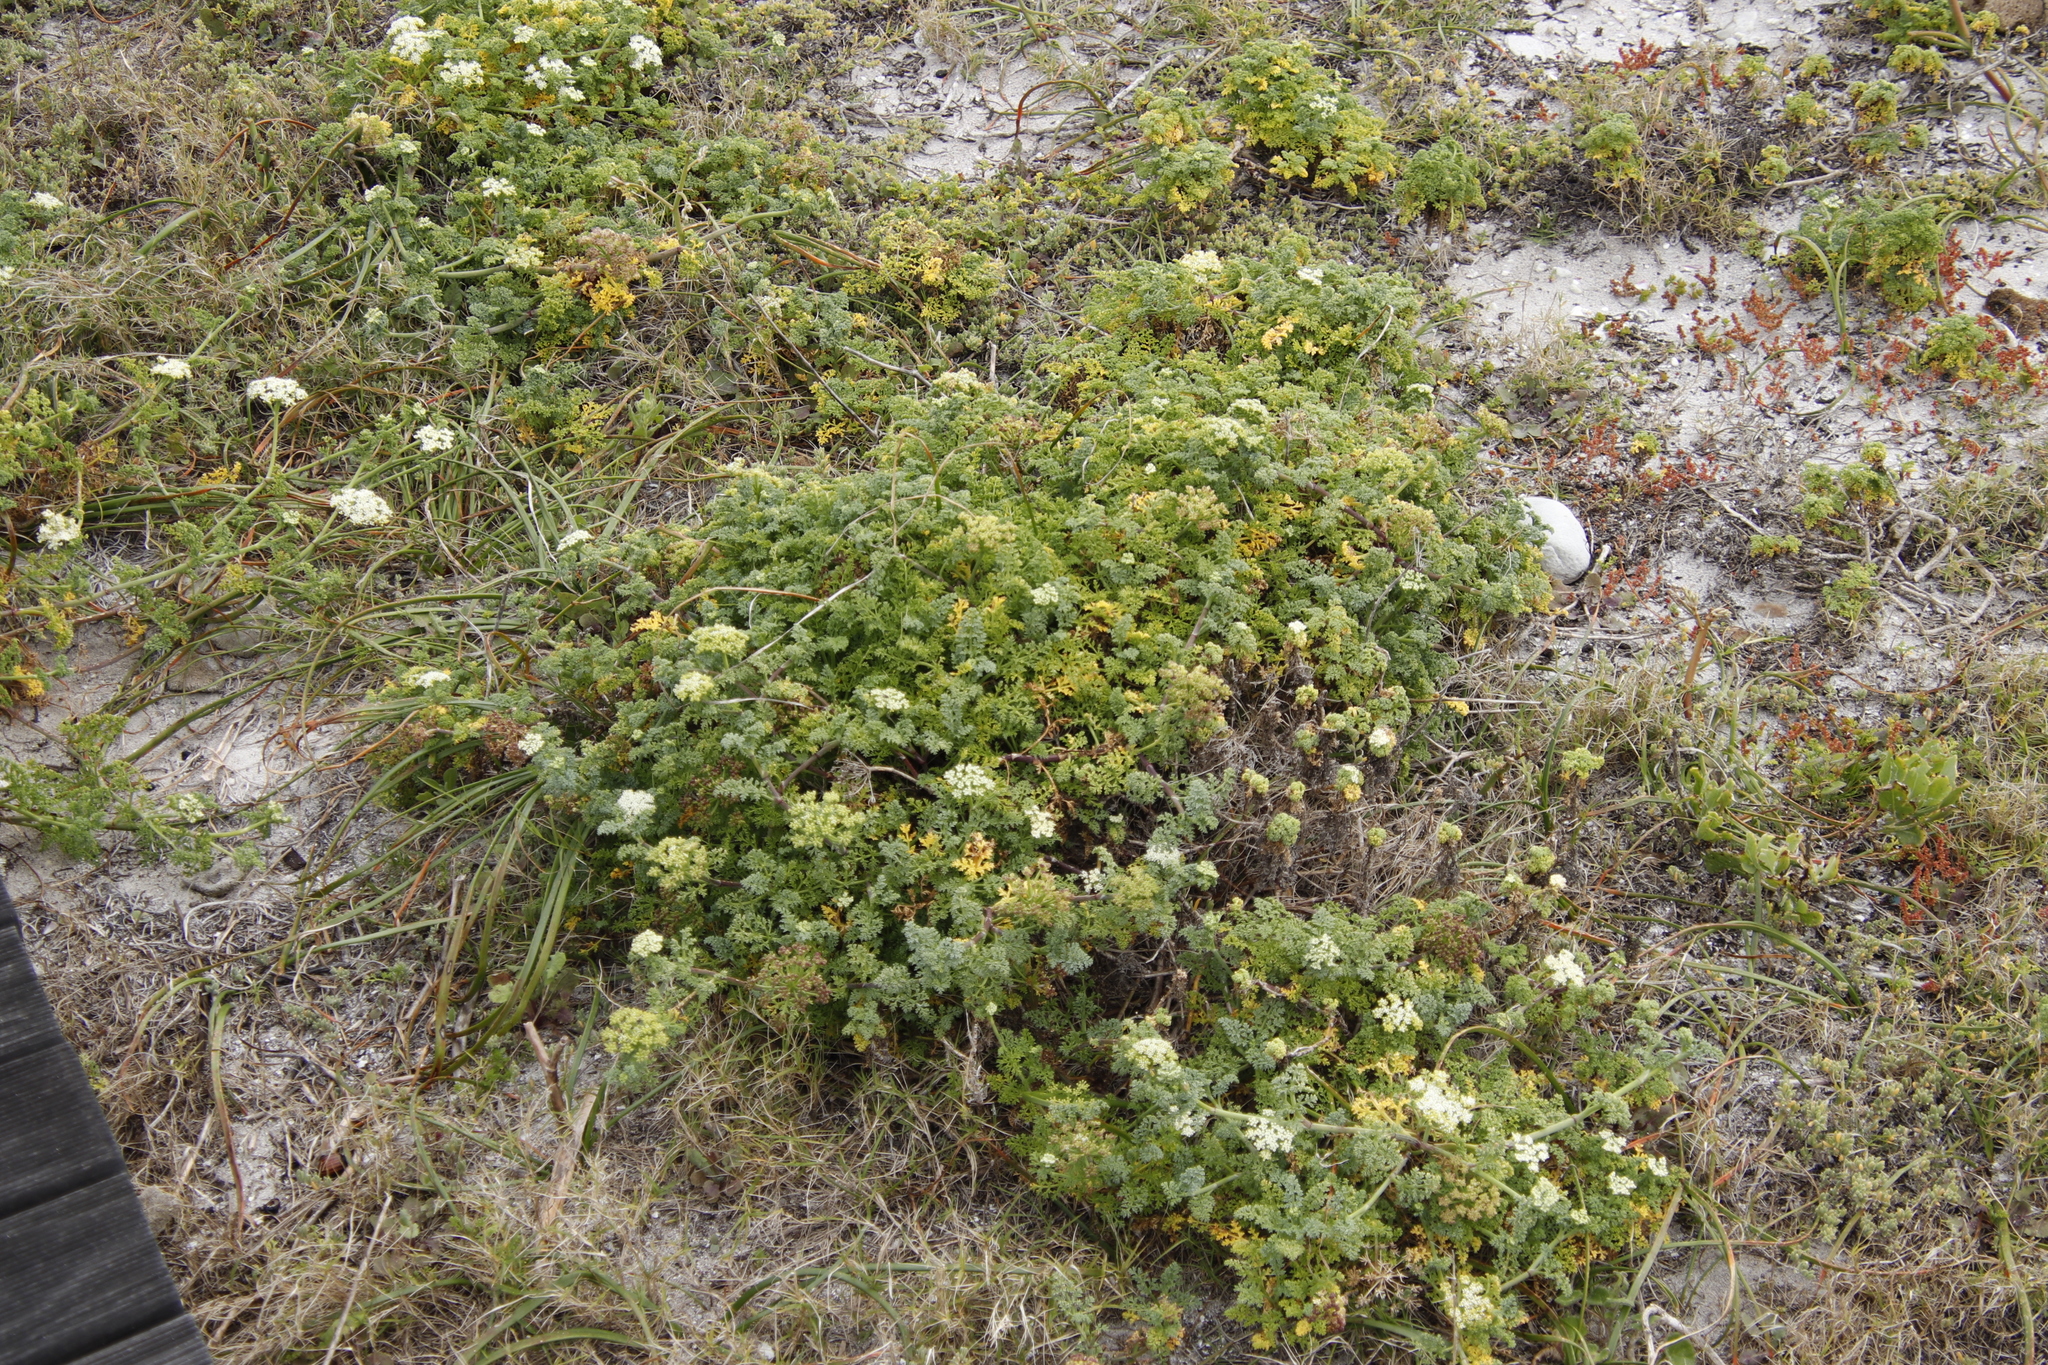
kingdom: Plantae
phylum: Tracheophyta
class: Magnoliopsida
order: Apiales
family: Apiaceae
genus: Dasispermum
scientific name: Dasispermum suffruticosum
